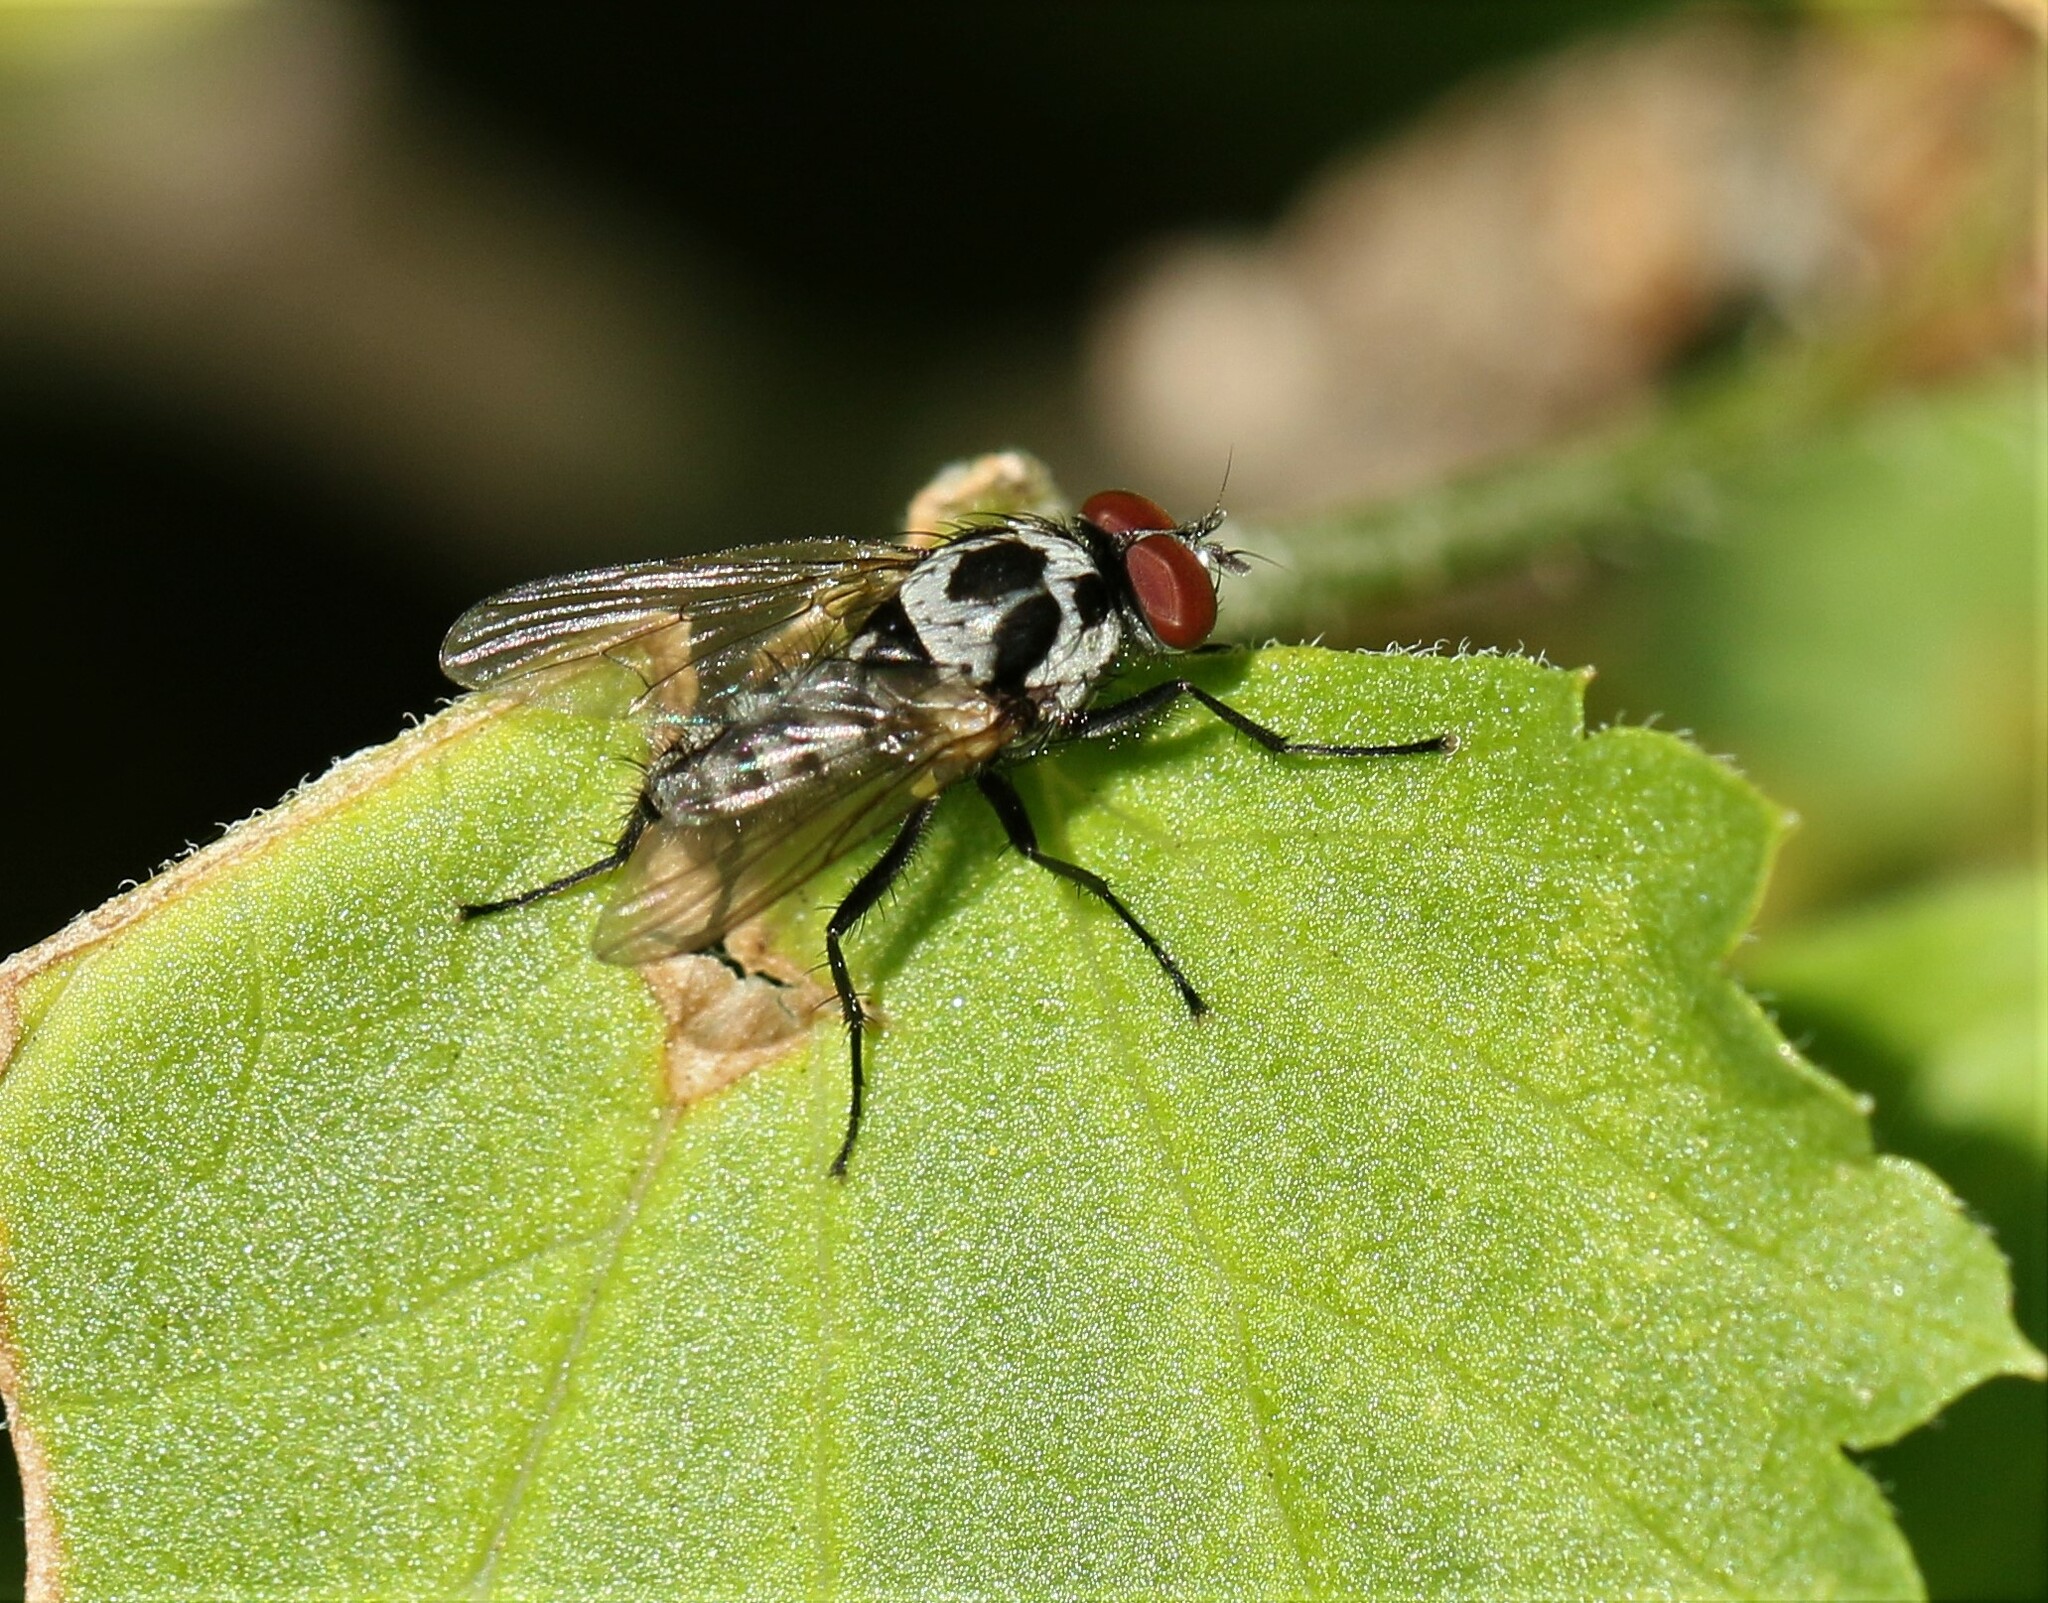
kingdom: Animalia
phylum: Arthropoda
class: Insecta
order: Diptera
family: Anthomyiidae
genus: Anthomyia
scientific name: Anthomyia procellaris
